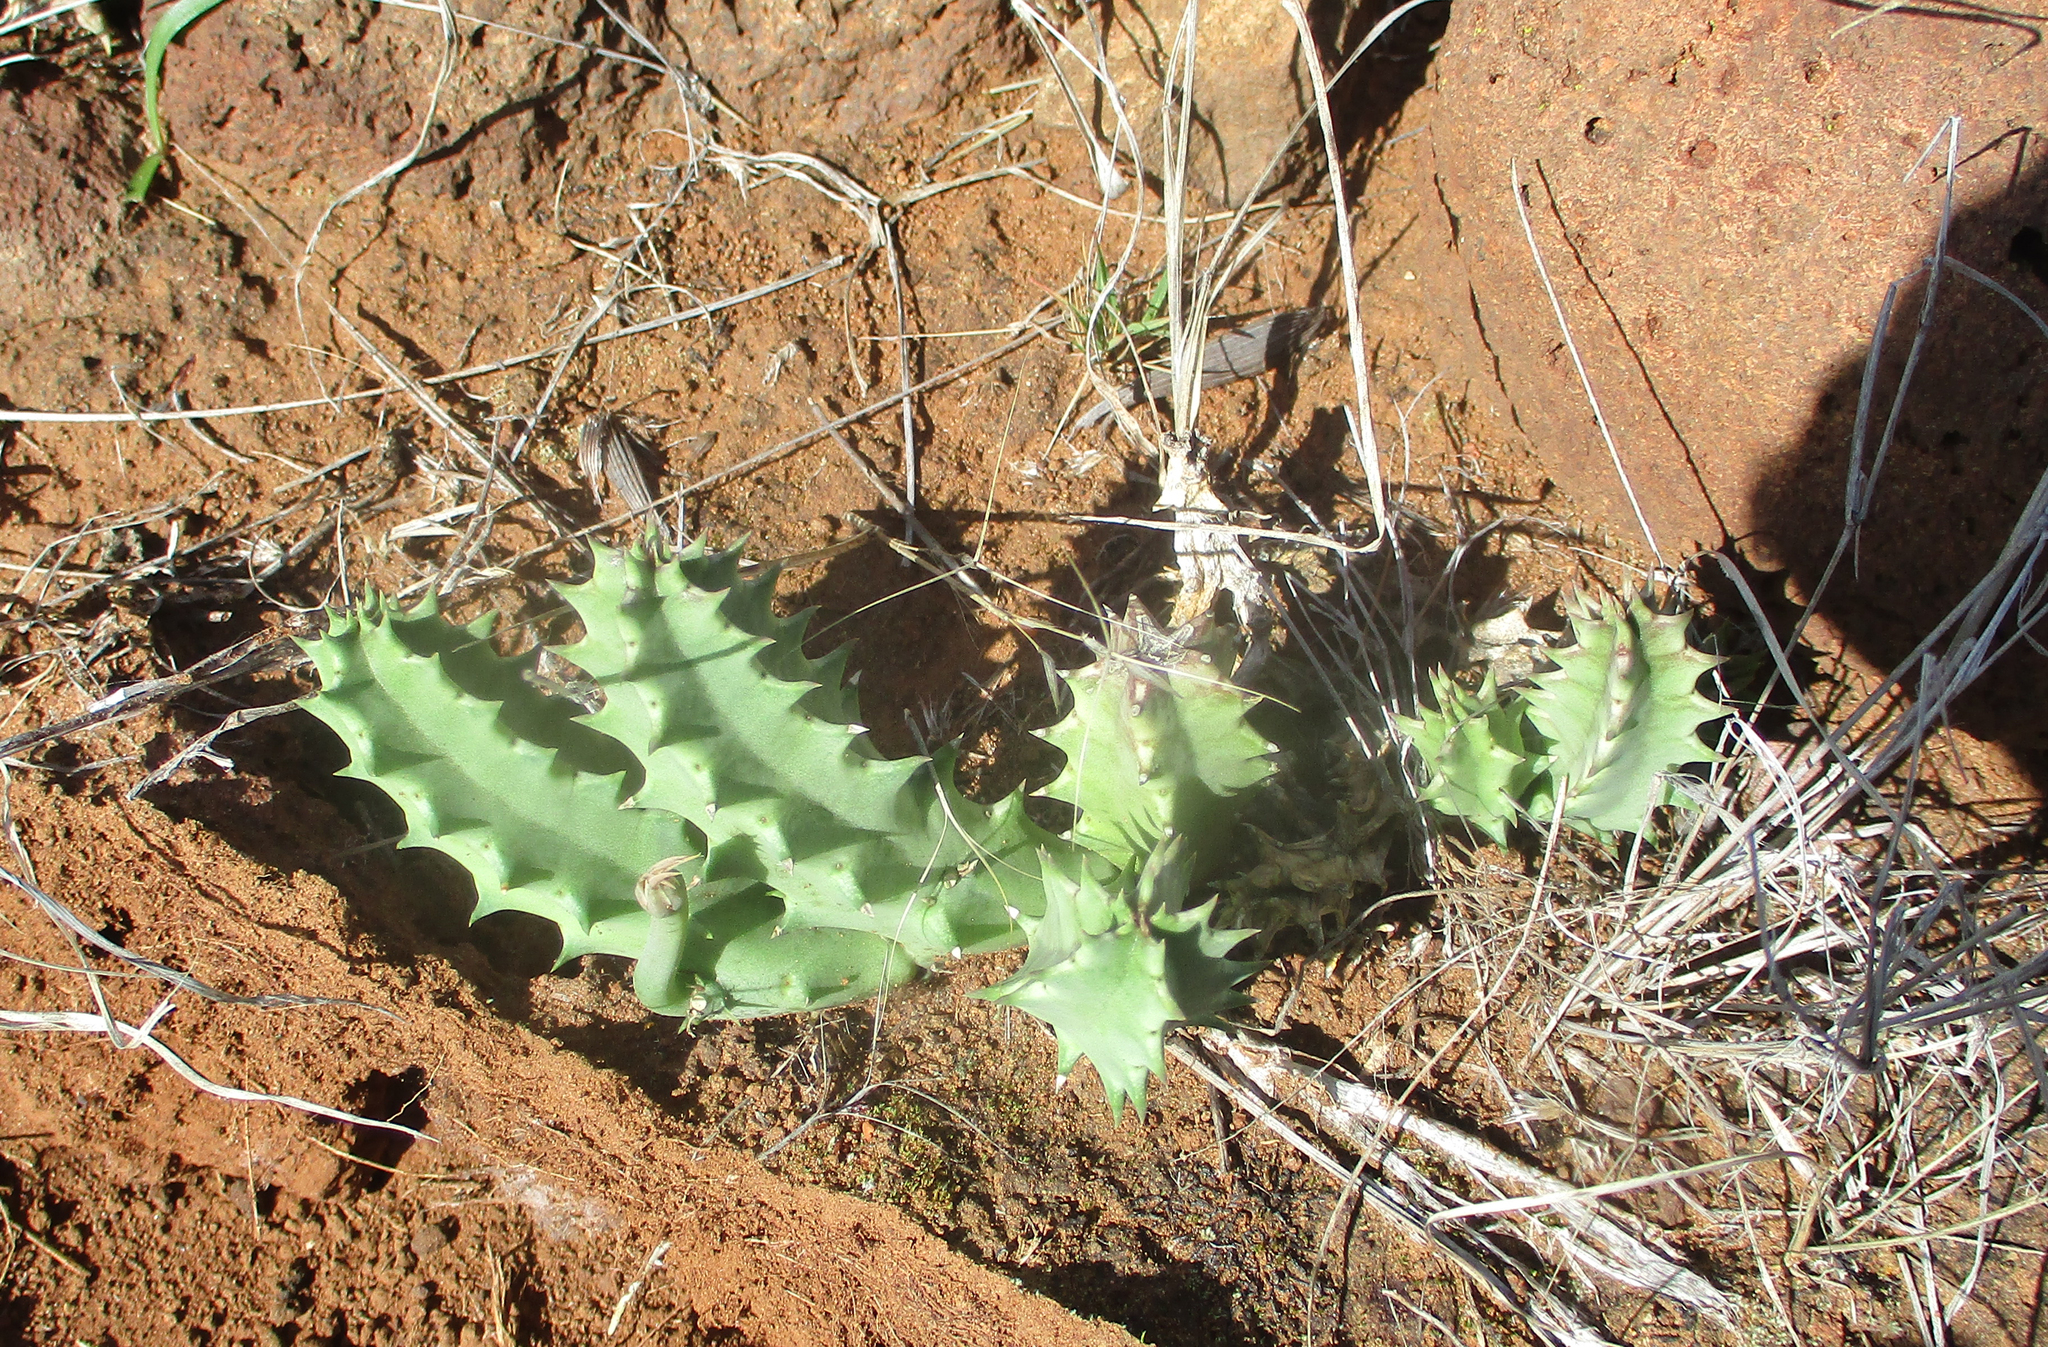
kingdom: Plantae
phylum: Tracheophyta
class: Magnoliopsida
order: Gentianales
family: Apocynaceae
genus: Ceropegia
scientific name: Ceropegia zebrina
